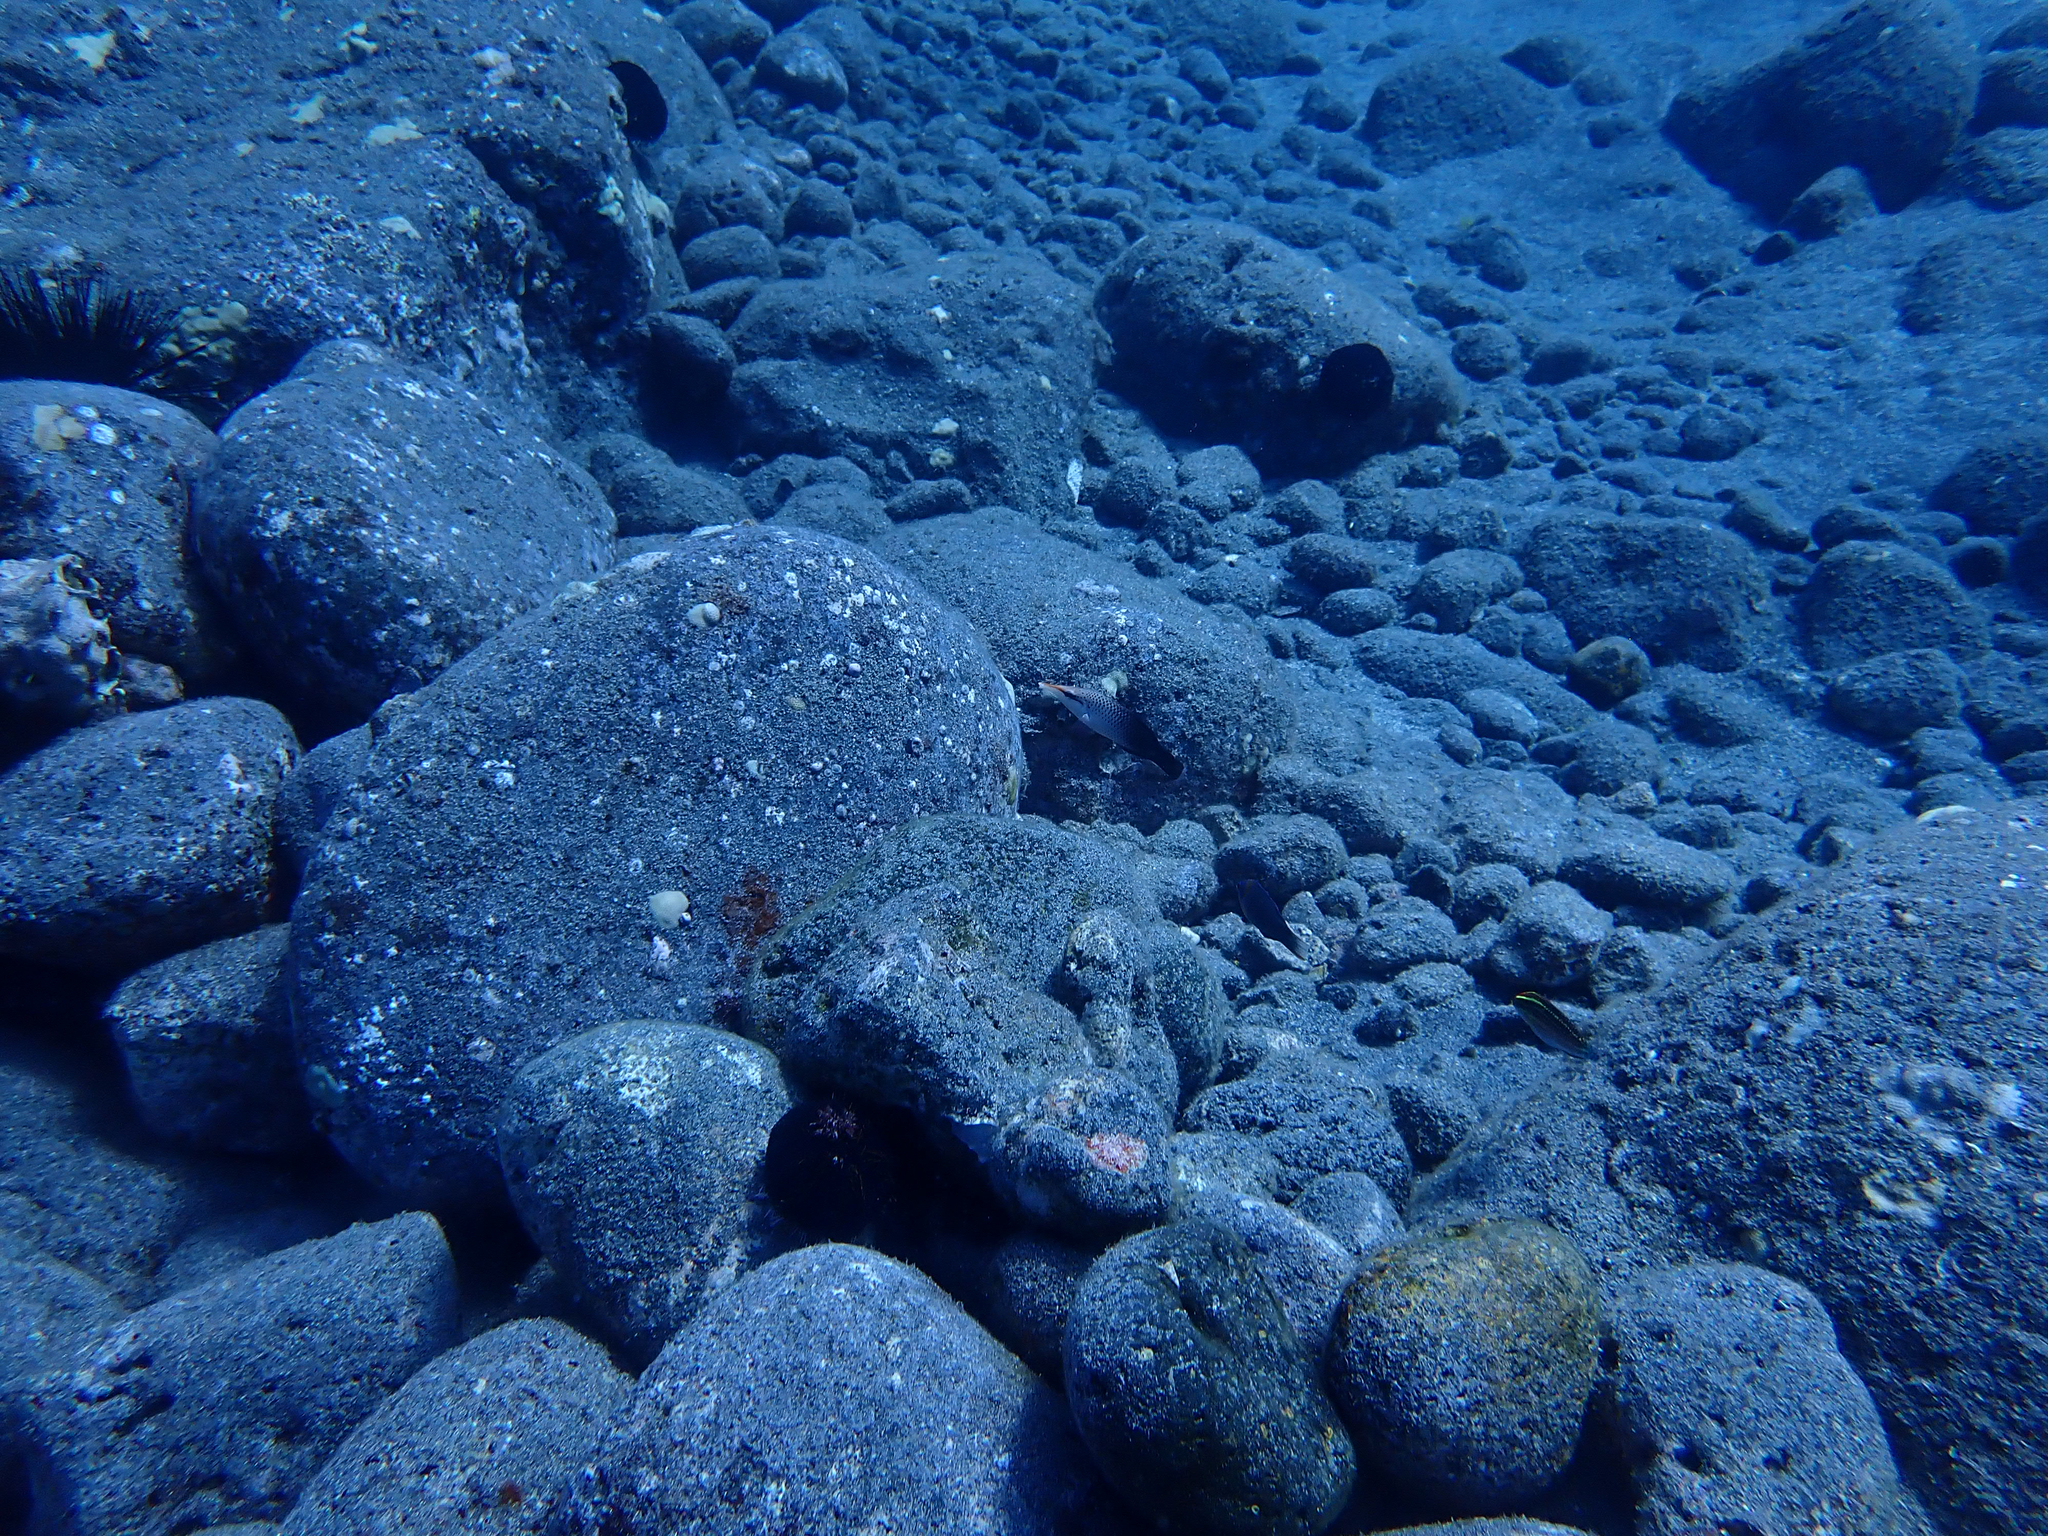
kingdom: Animalia
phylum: Chordata
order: Perciformes
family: Labridae
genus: Gomphosus
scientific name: Gomphosus varius
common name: Bird wrasse
